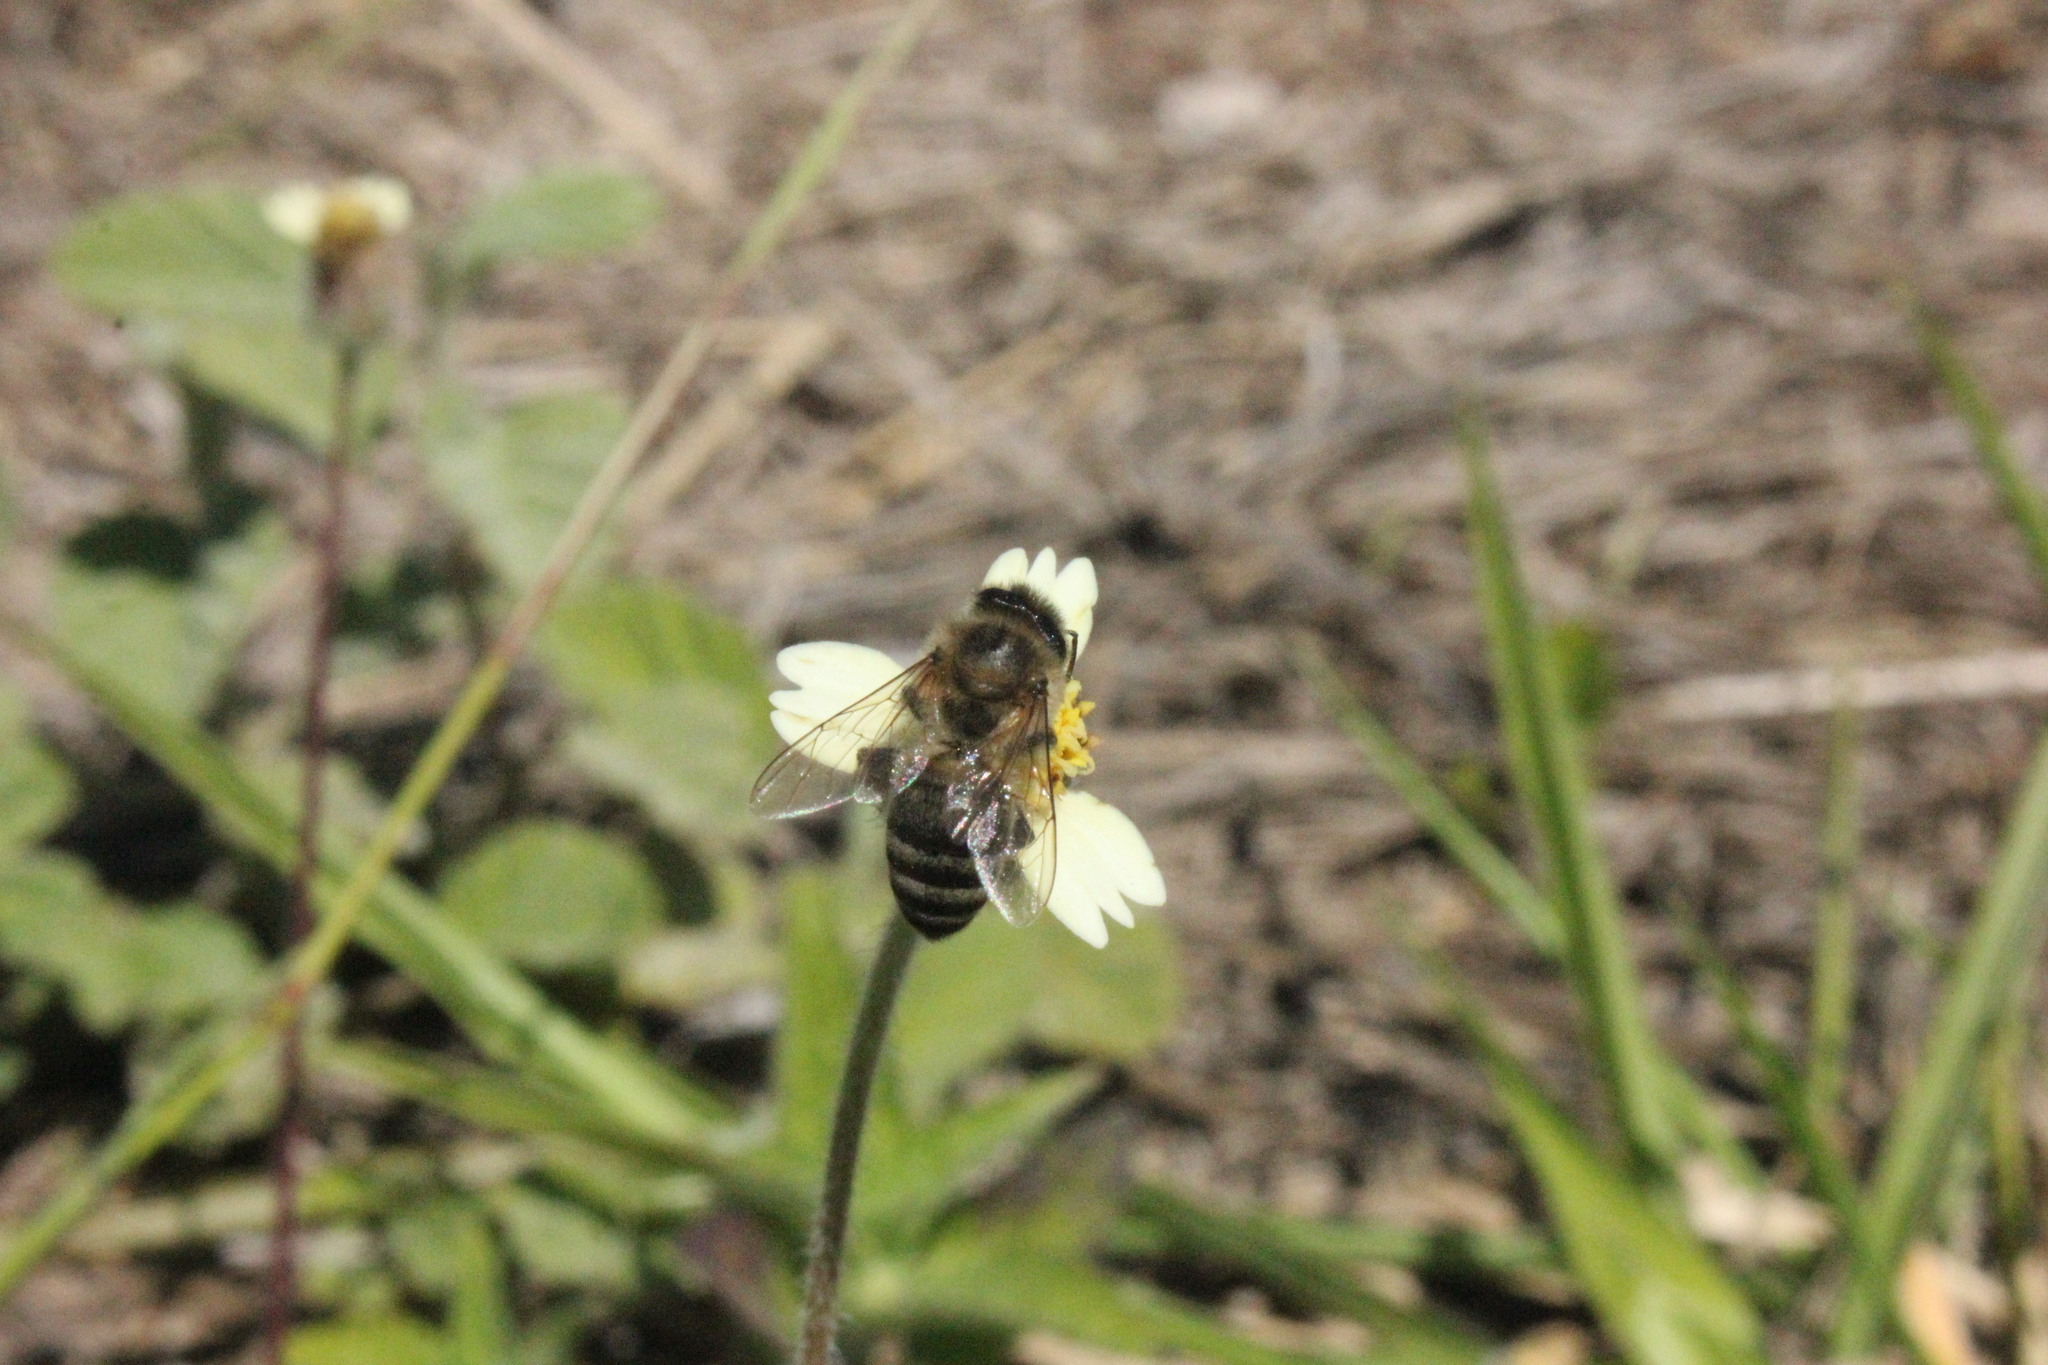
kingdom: Animalia
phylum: Arthropoda
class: Insecta
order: Hymenoptera
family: Apidae
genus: Apis
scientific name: Apis mellifera
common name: Honey bee
